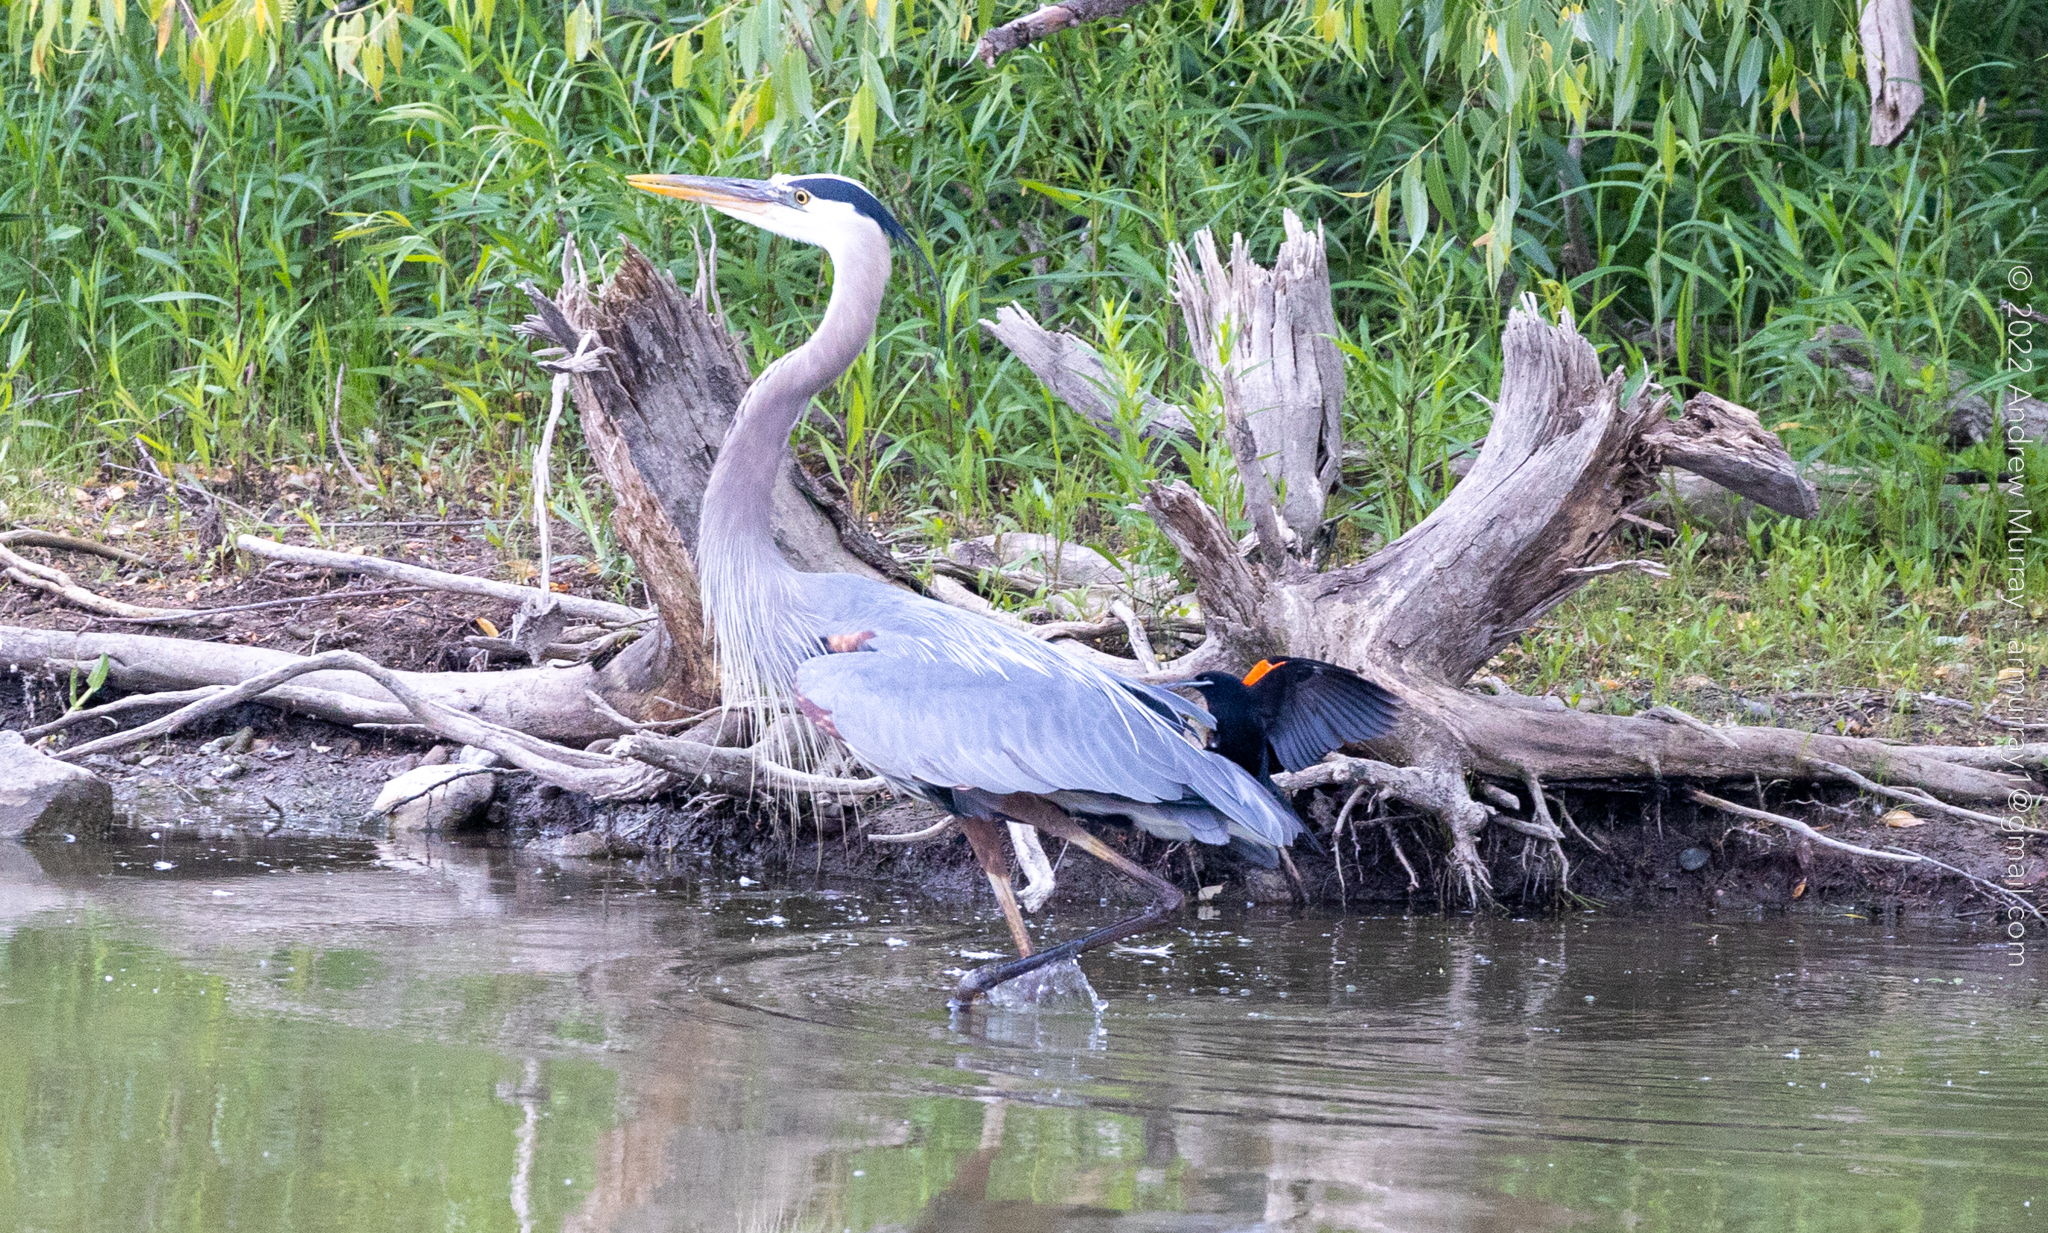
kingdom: Animalia
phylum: Chordata
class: Aves
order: Pelecaniformes
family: Ardeidae
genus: Ardea
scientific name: Ardea herodias
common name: Great blue heron
